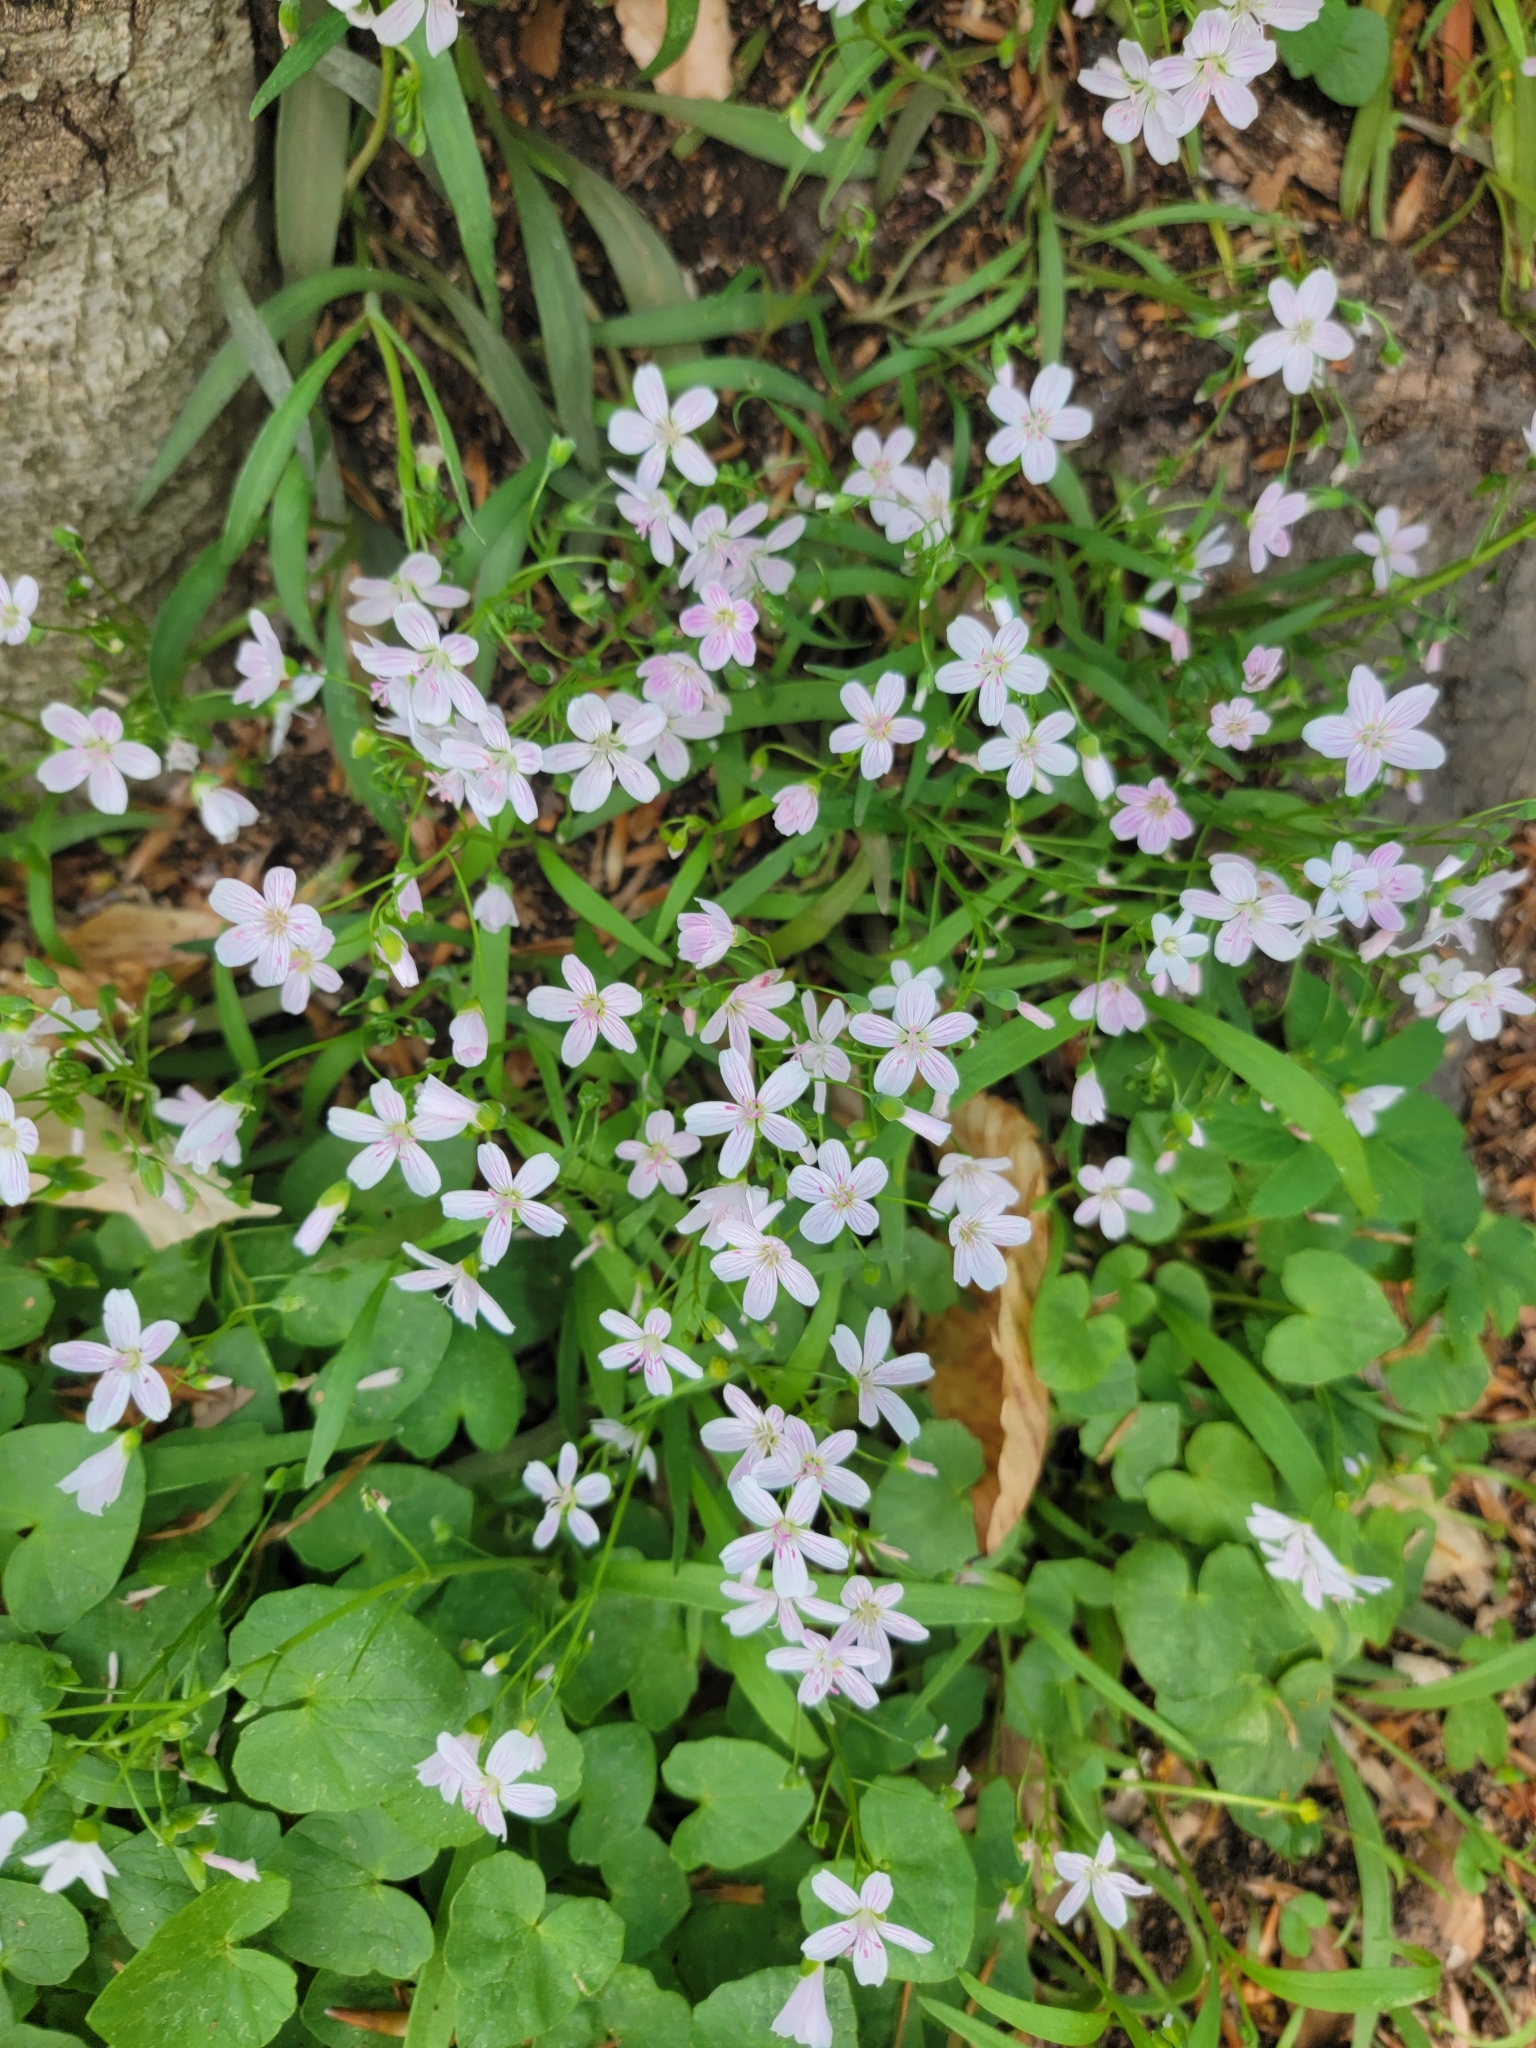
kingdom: Plantae
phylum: Tracheophyta
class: Magnoliopsida
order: Caryophyllales
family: Montiaceae
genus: Claytonia
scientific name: Claytonia virginica
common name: Virginia springbeauty
